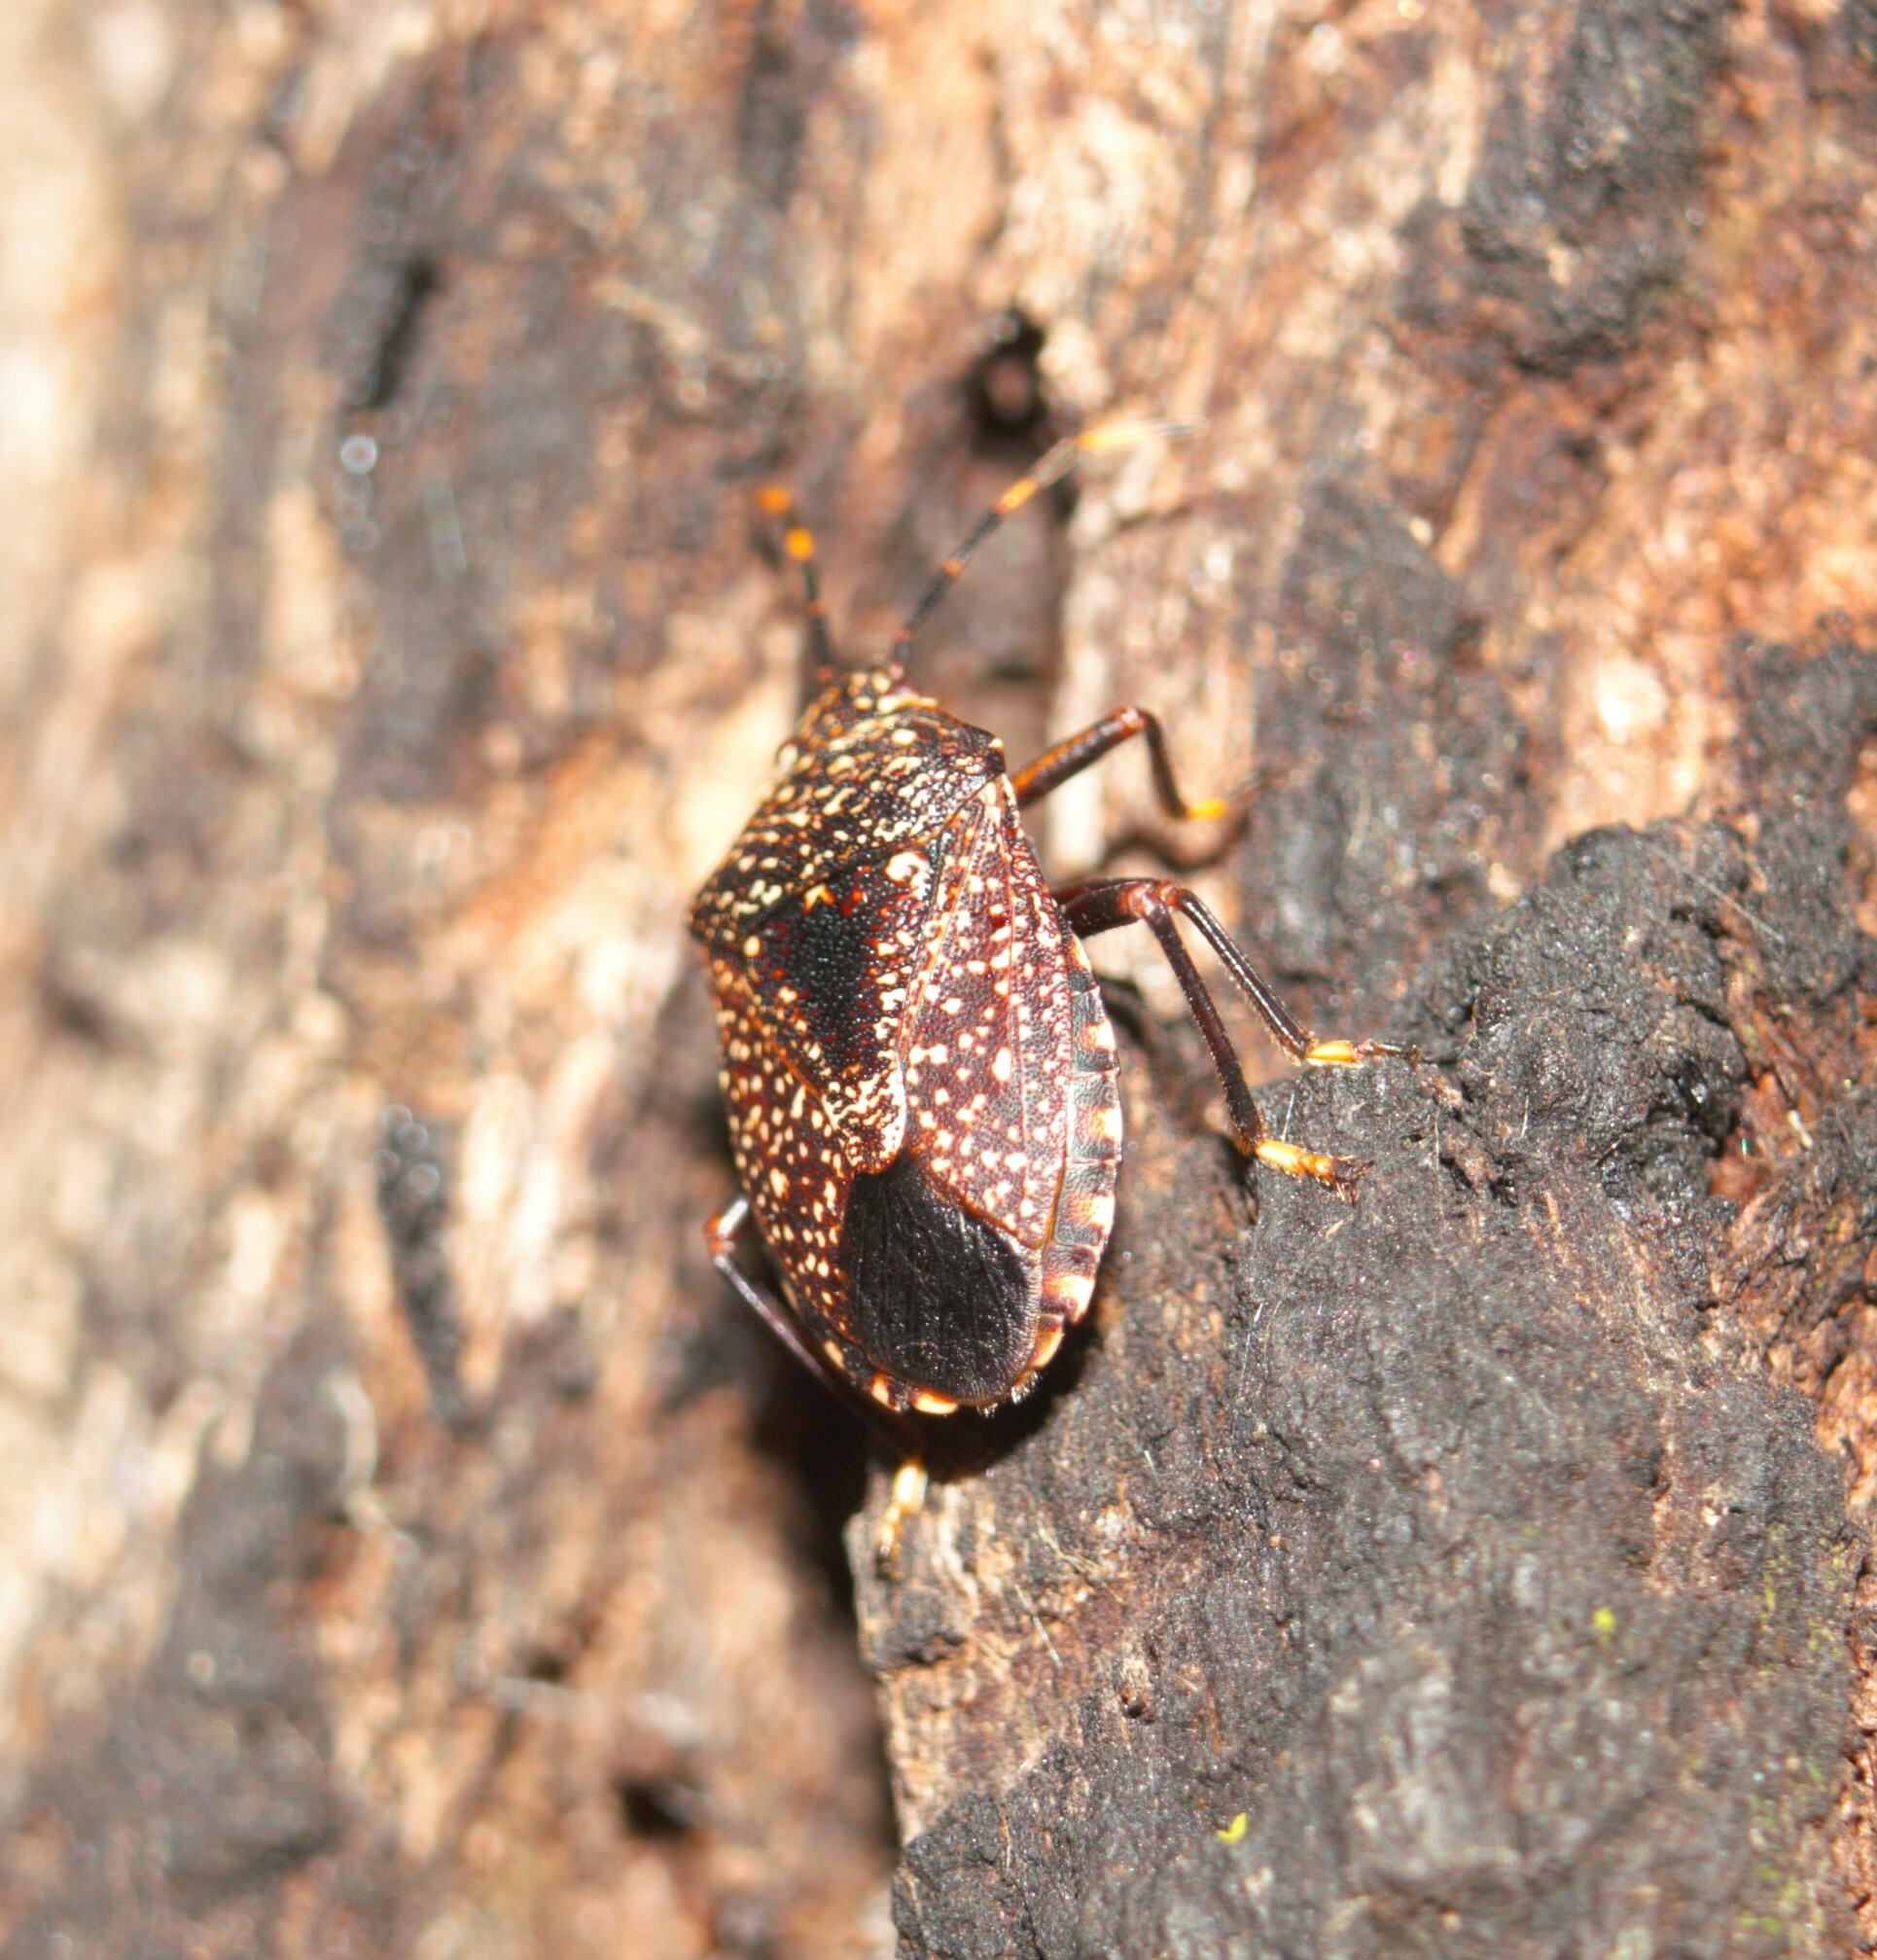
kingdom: Animalia
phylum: Arthropoda
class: Insecta
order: Hemiptera
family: Pentatomidae
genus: Notius
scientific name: Notius
